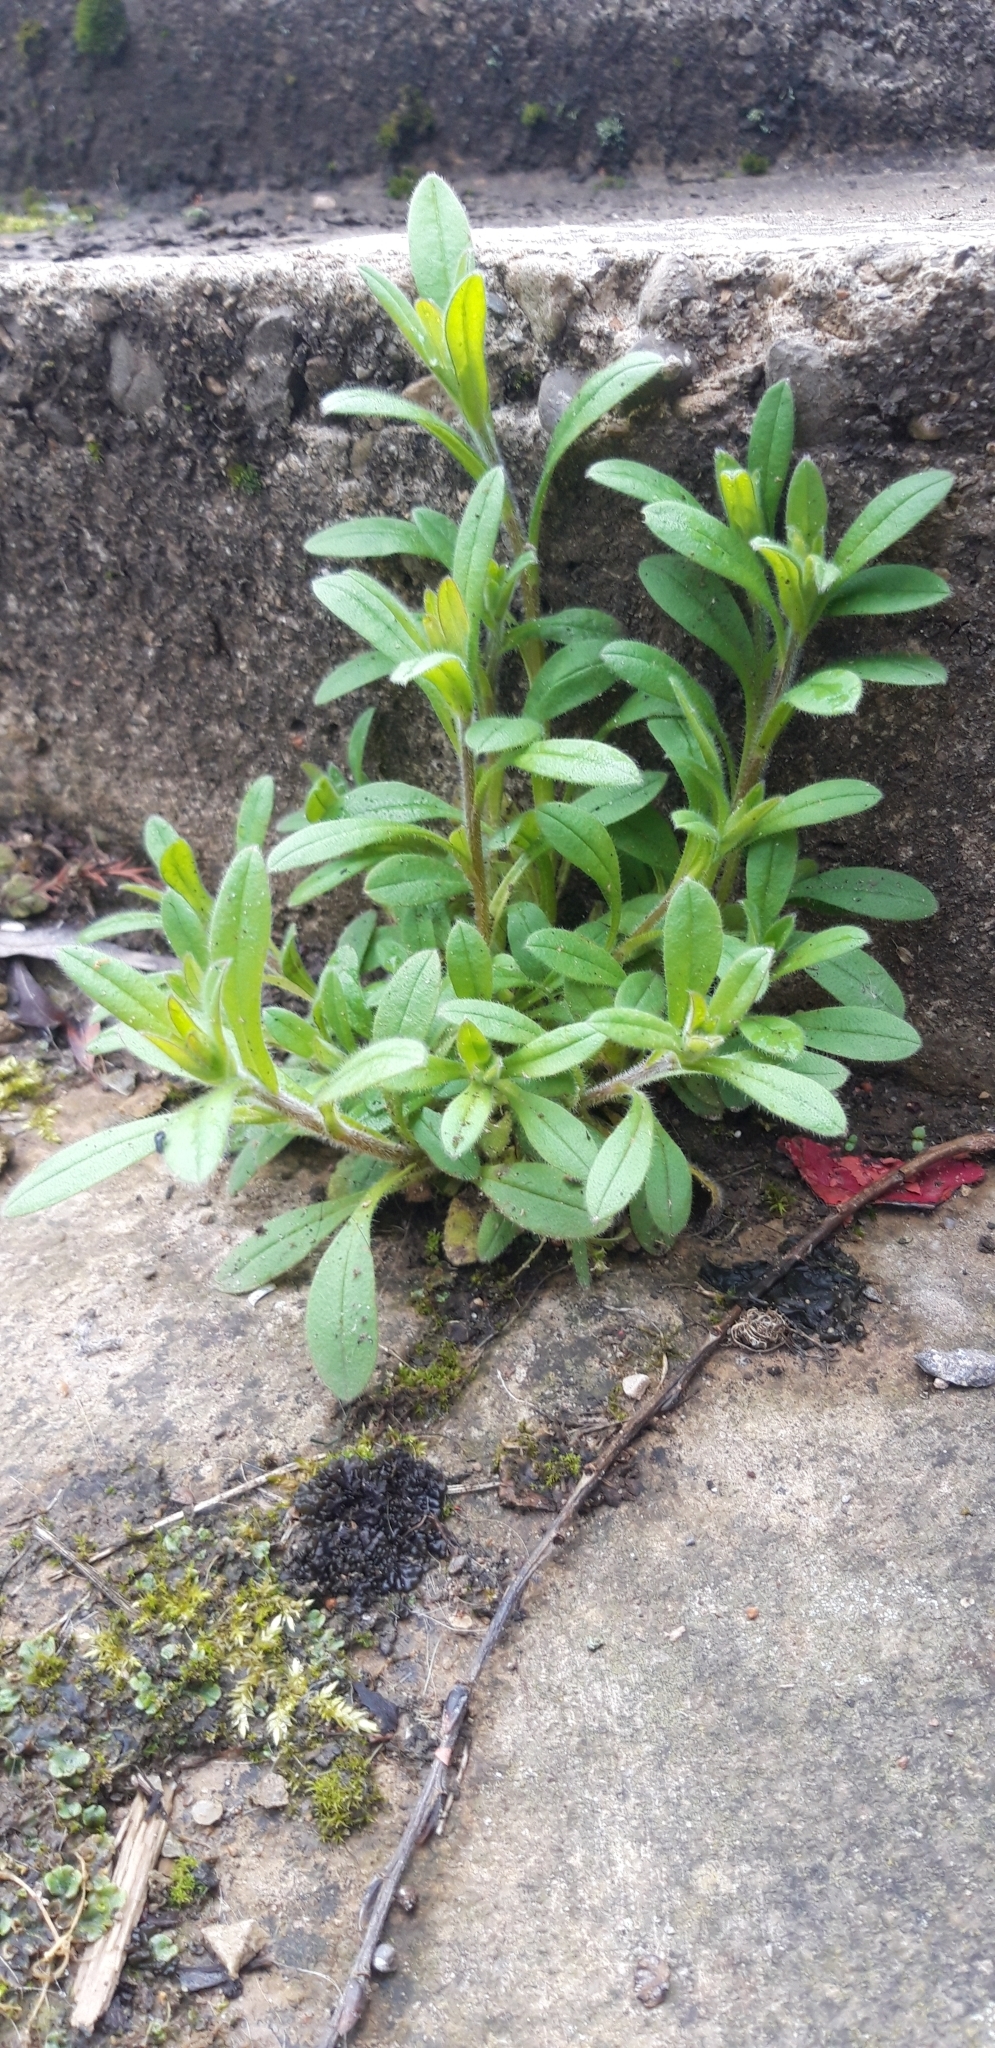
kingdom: Plantae
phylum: Tracheophyta
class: Magnoliopsida
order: Boraginales
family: Boraginaceae
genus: Myosotis
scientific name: Myosotis sylvatica
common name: Wood forget-me-not
